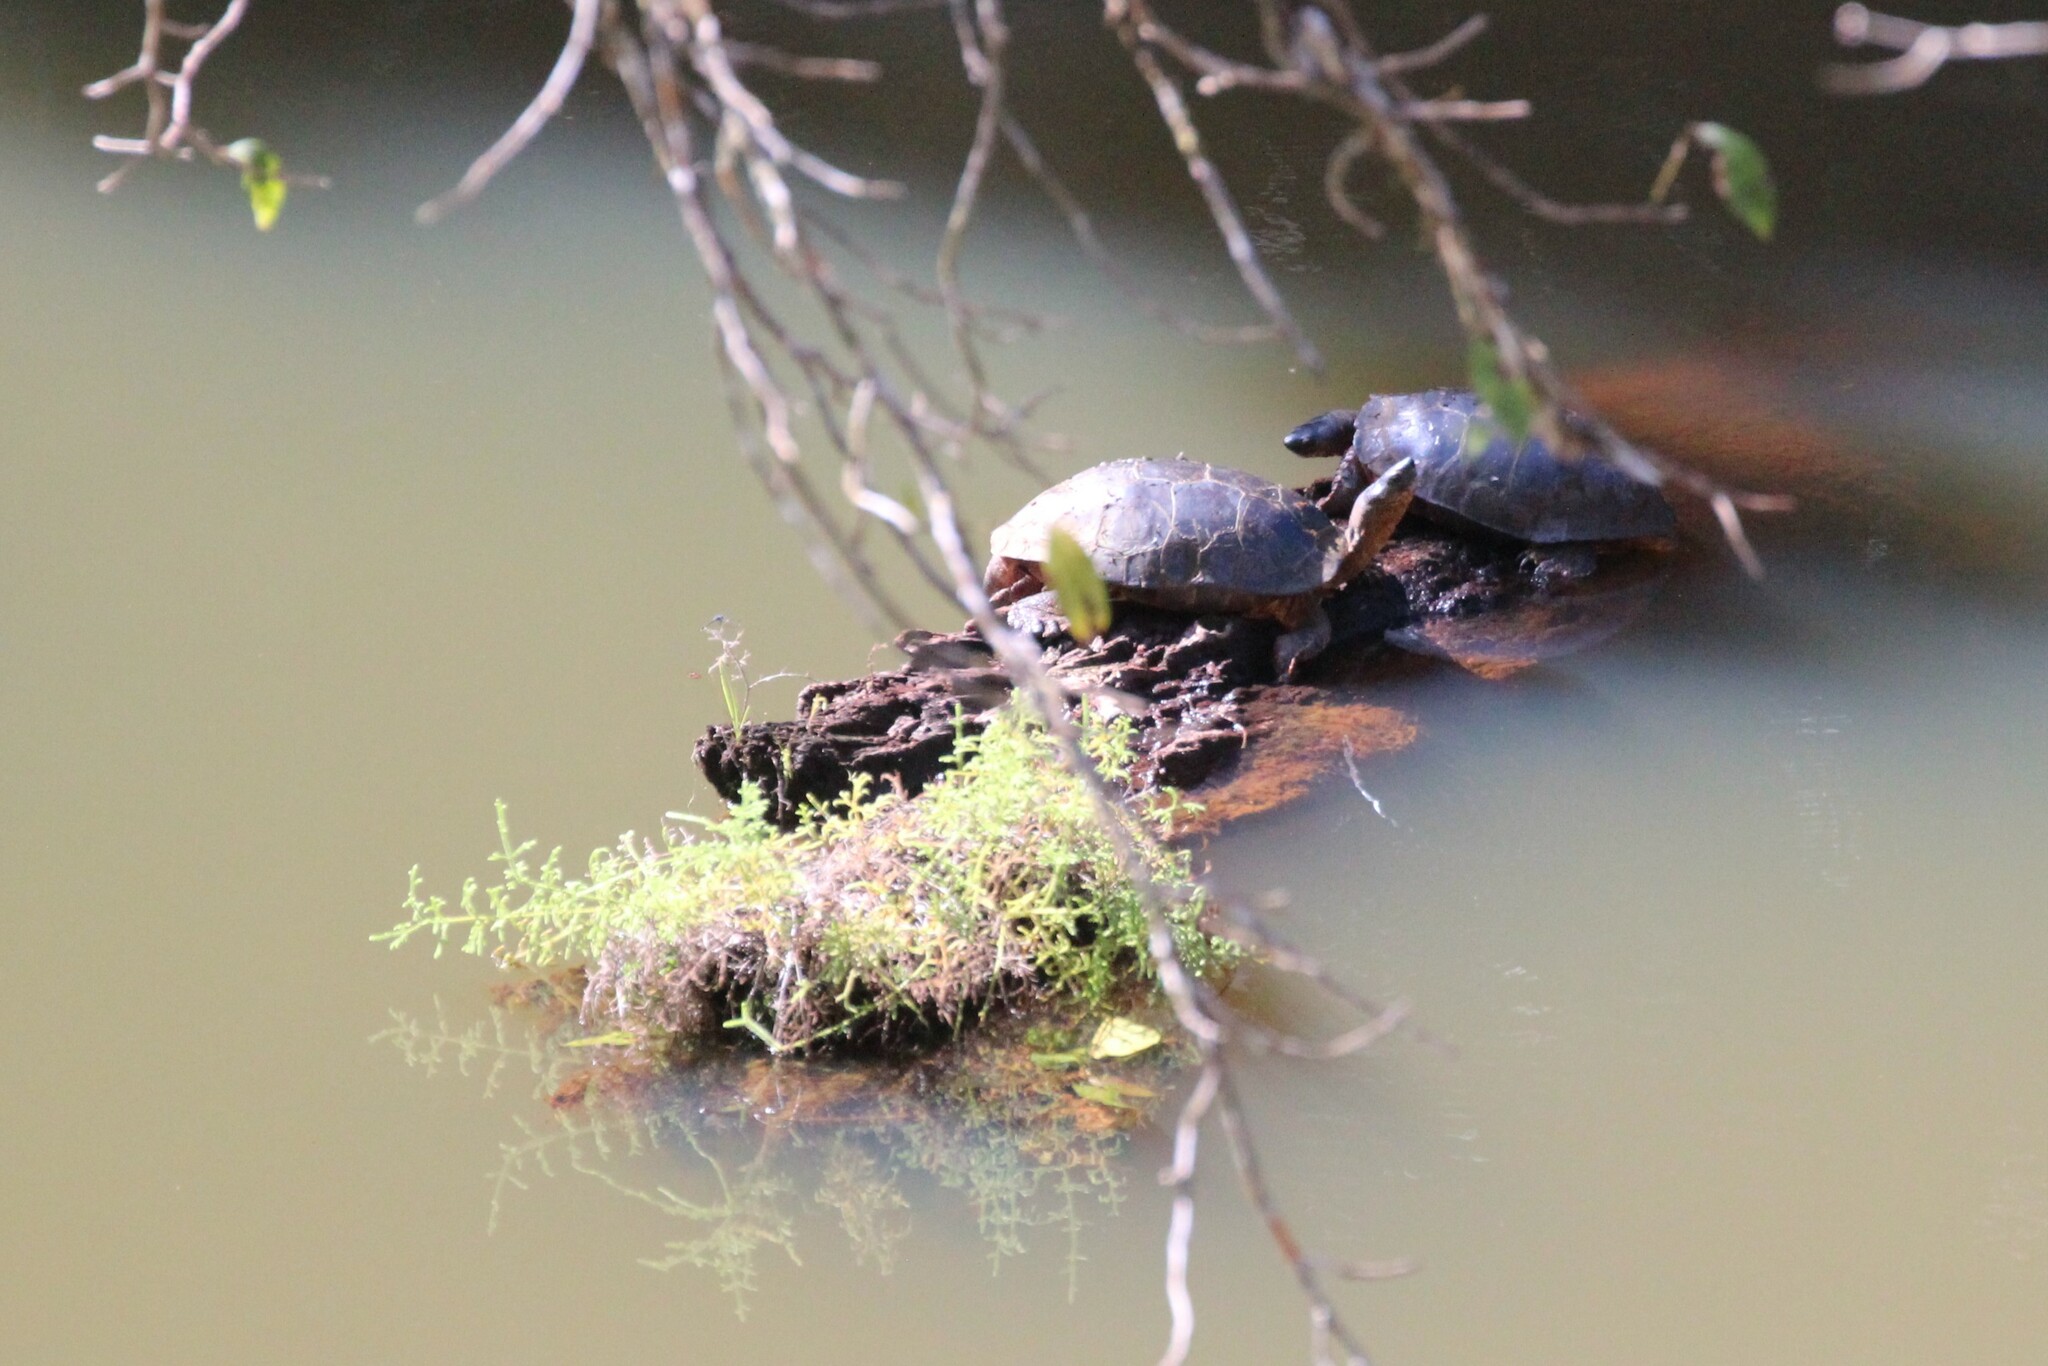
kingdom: Animalia
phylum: Chordata
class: Testudines
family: Geoemydidae
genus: Rhinoclemmys
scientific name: Rhinoclemmys funerea
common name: Black wood turtle
